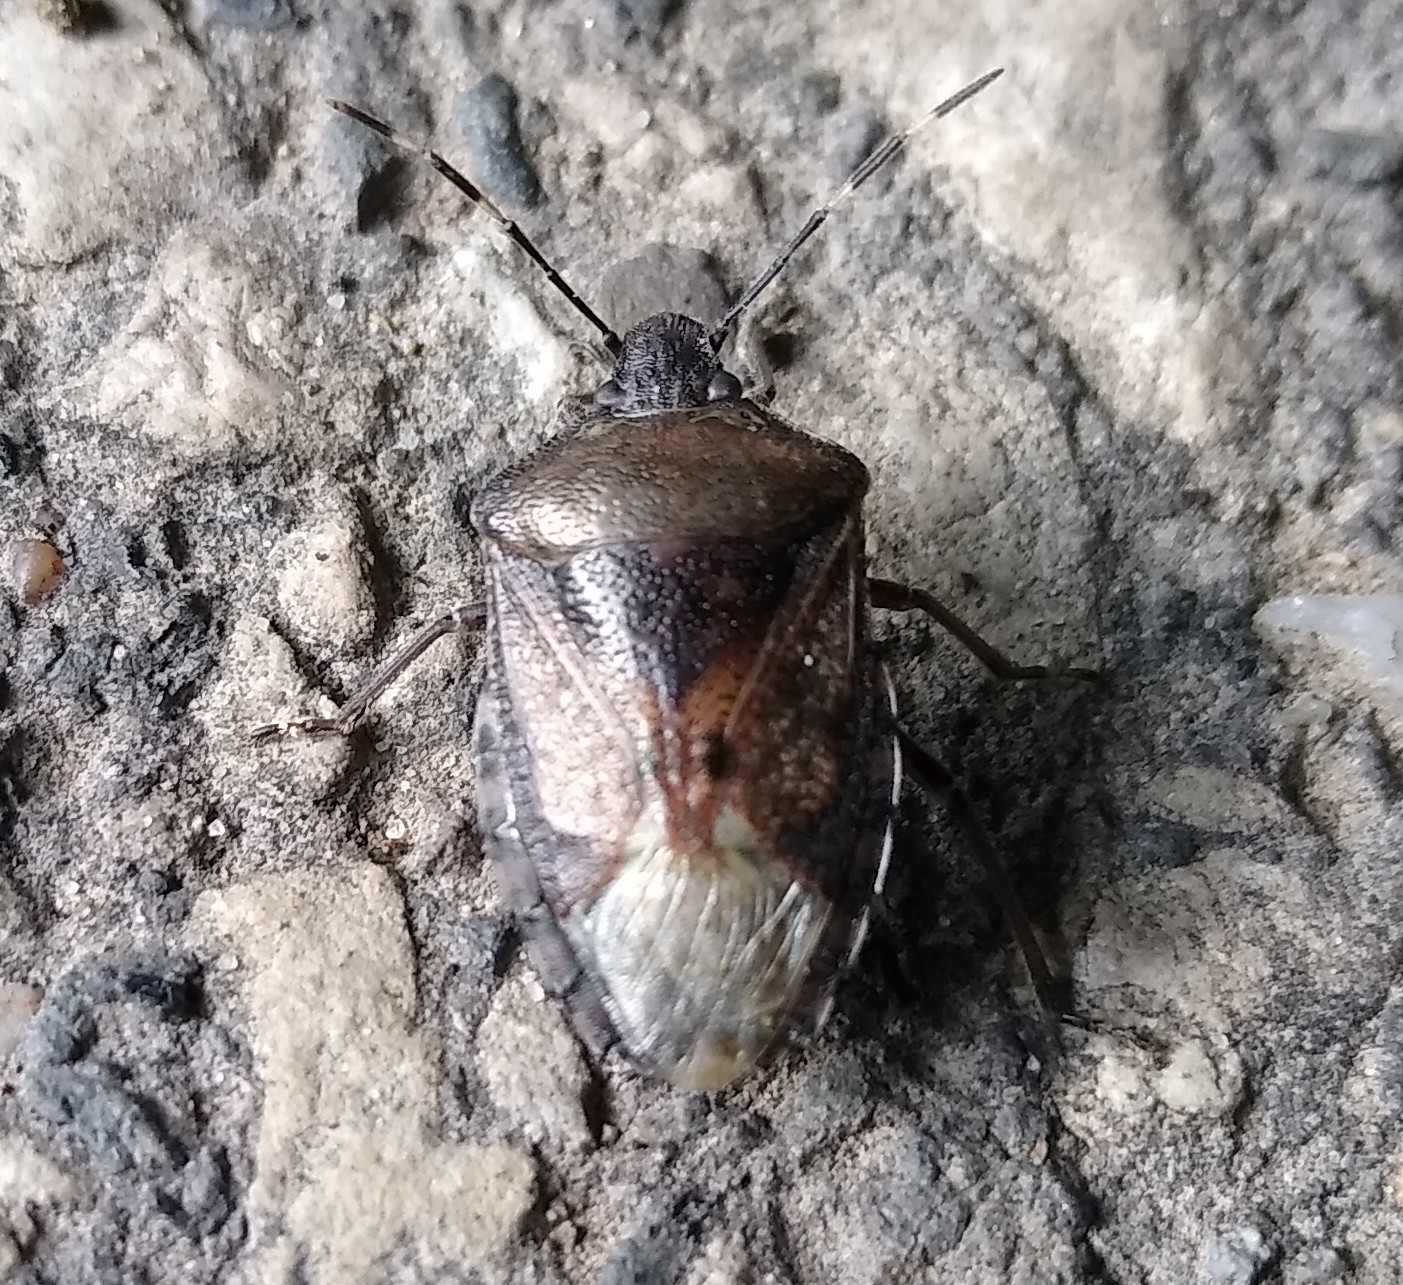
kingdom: Animalia
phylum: Arthropoda
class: Insecta
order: Hemiptera
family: Pentatomidae
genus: Rhaphigaster
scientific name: Rhaphigaster nebulosa
